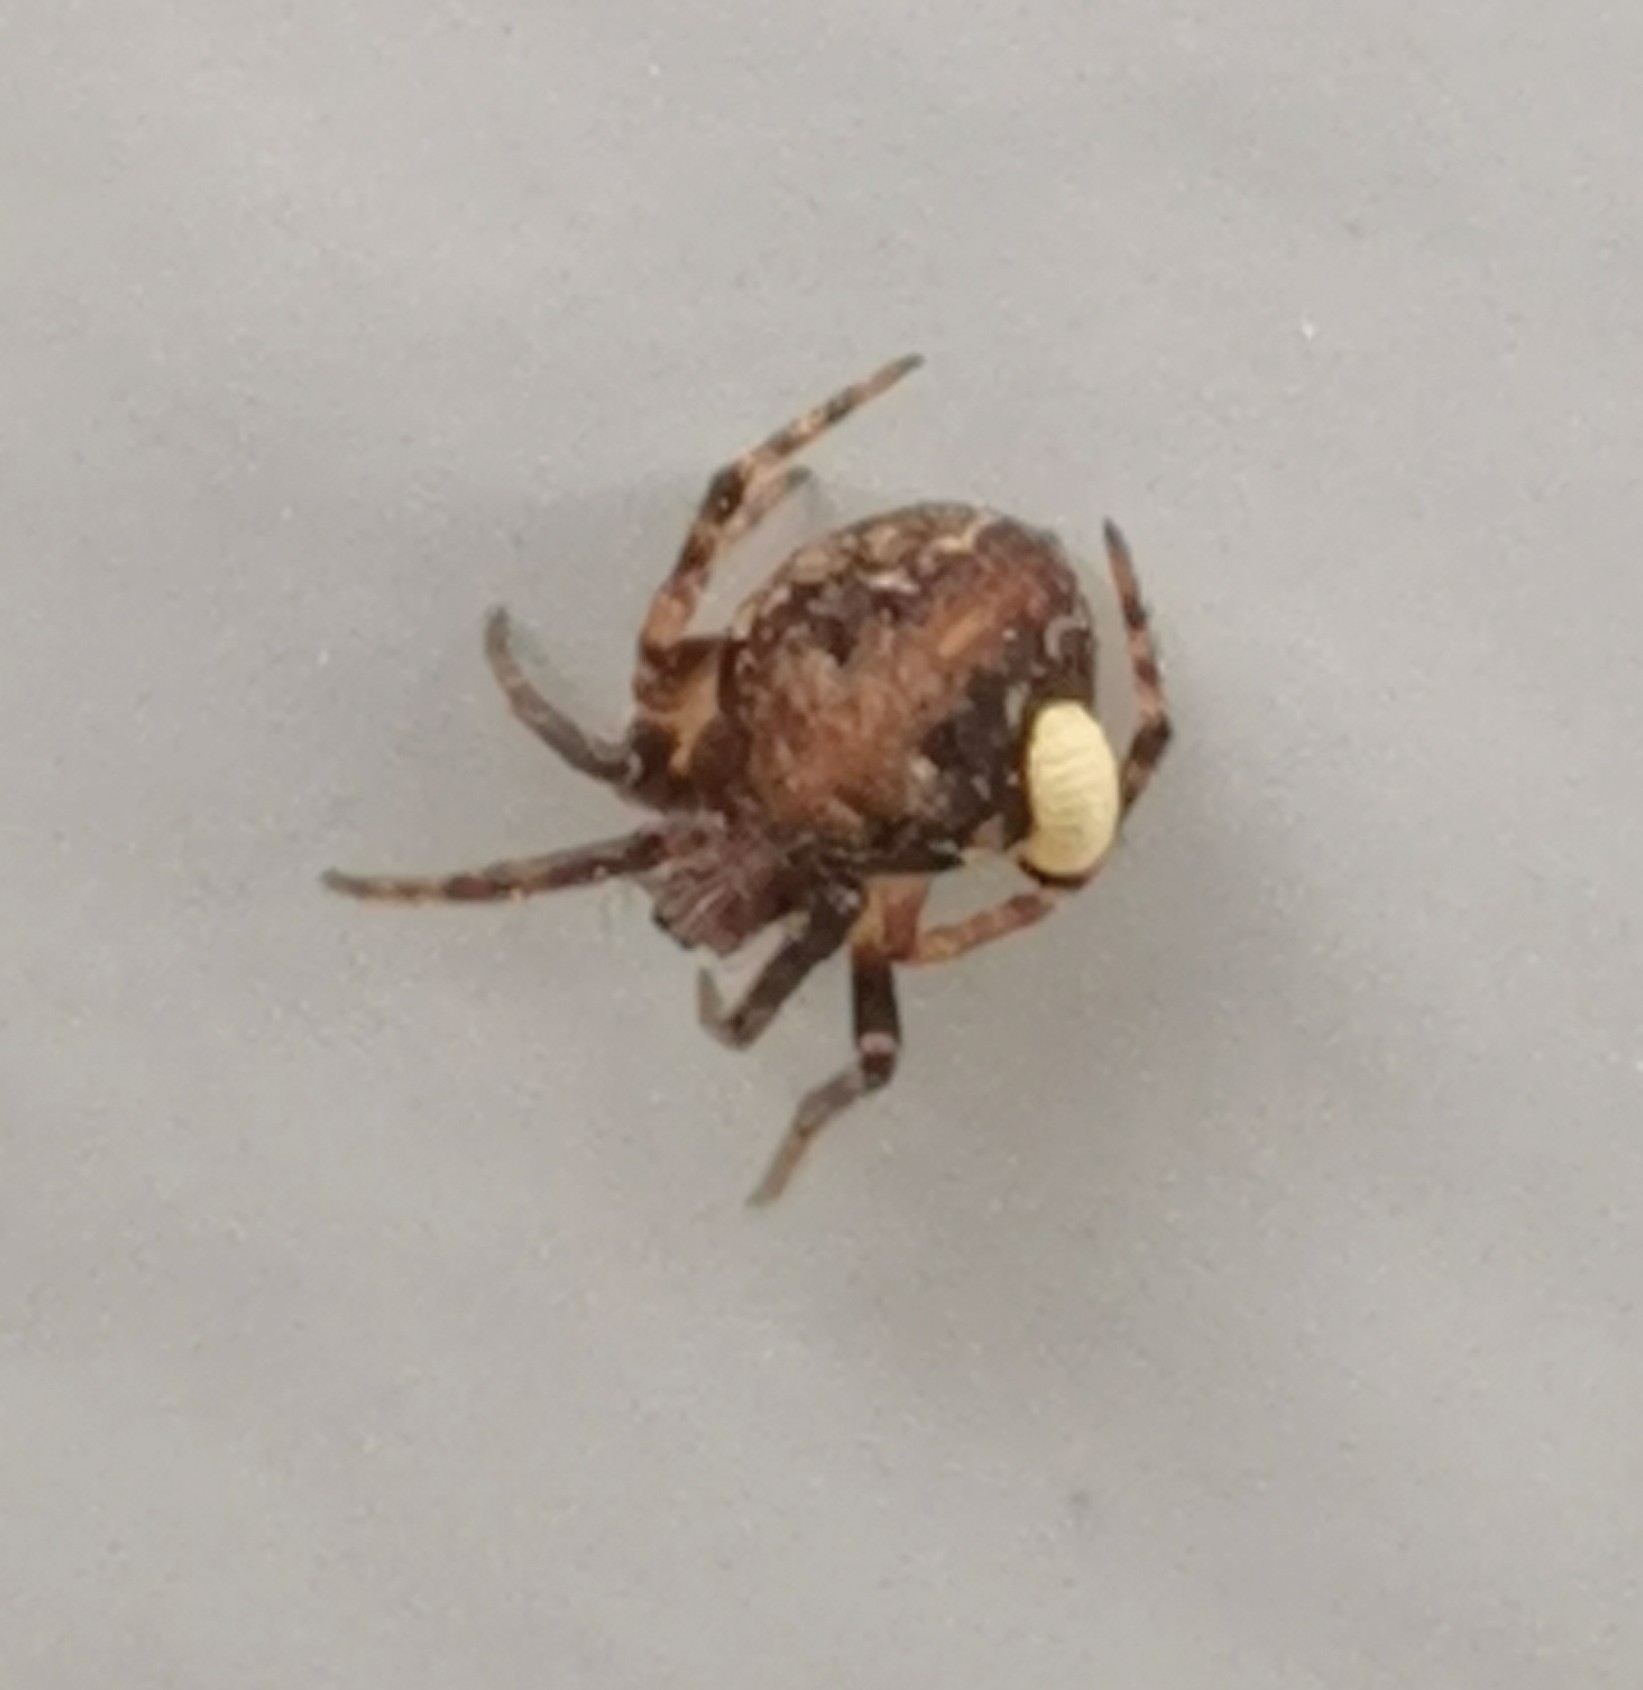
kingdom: Animalia
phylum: Arthropoda
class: Arachnida
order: Araneae
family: Araneidae
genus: Araneus
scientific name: Araneus sturmi
